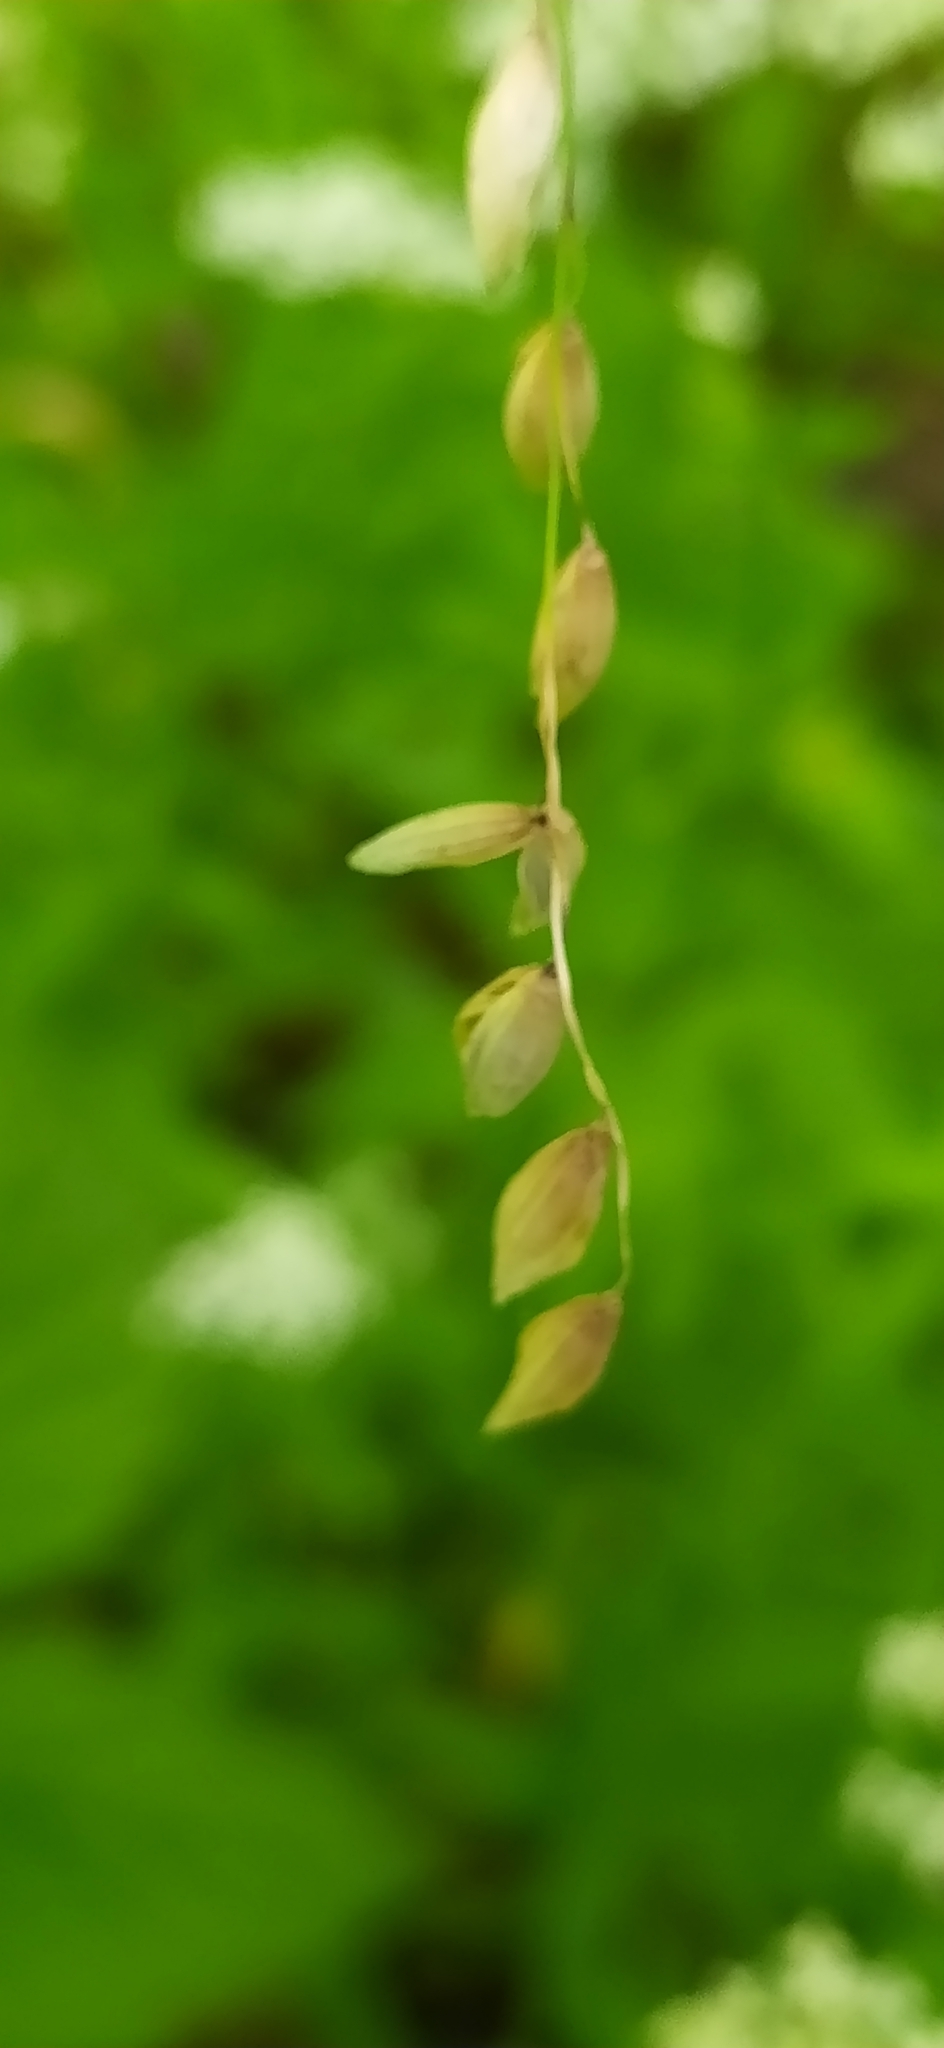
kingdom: Plantae
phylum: Tracheophyta
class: Liliopsida
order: Poales
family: Poaceae
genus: Melica
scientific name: Melica nutans
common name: Mountain melick
